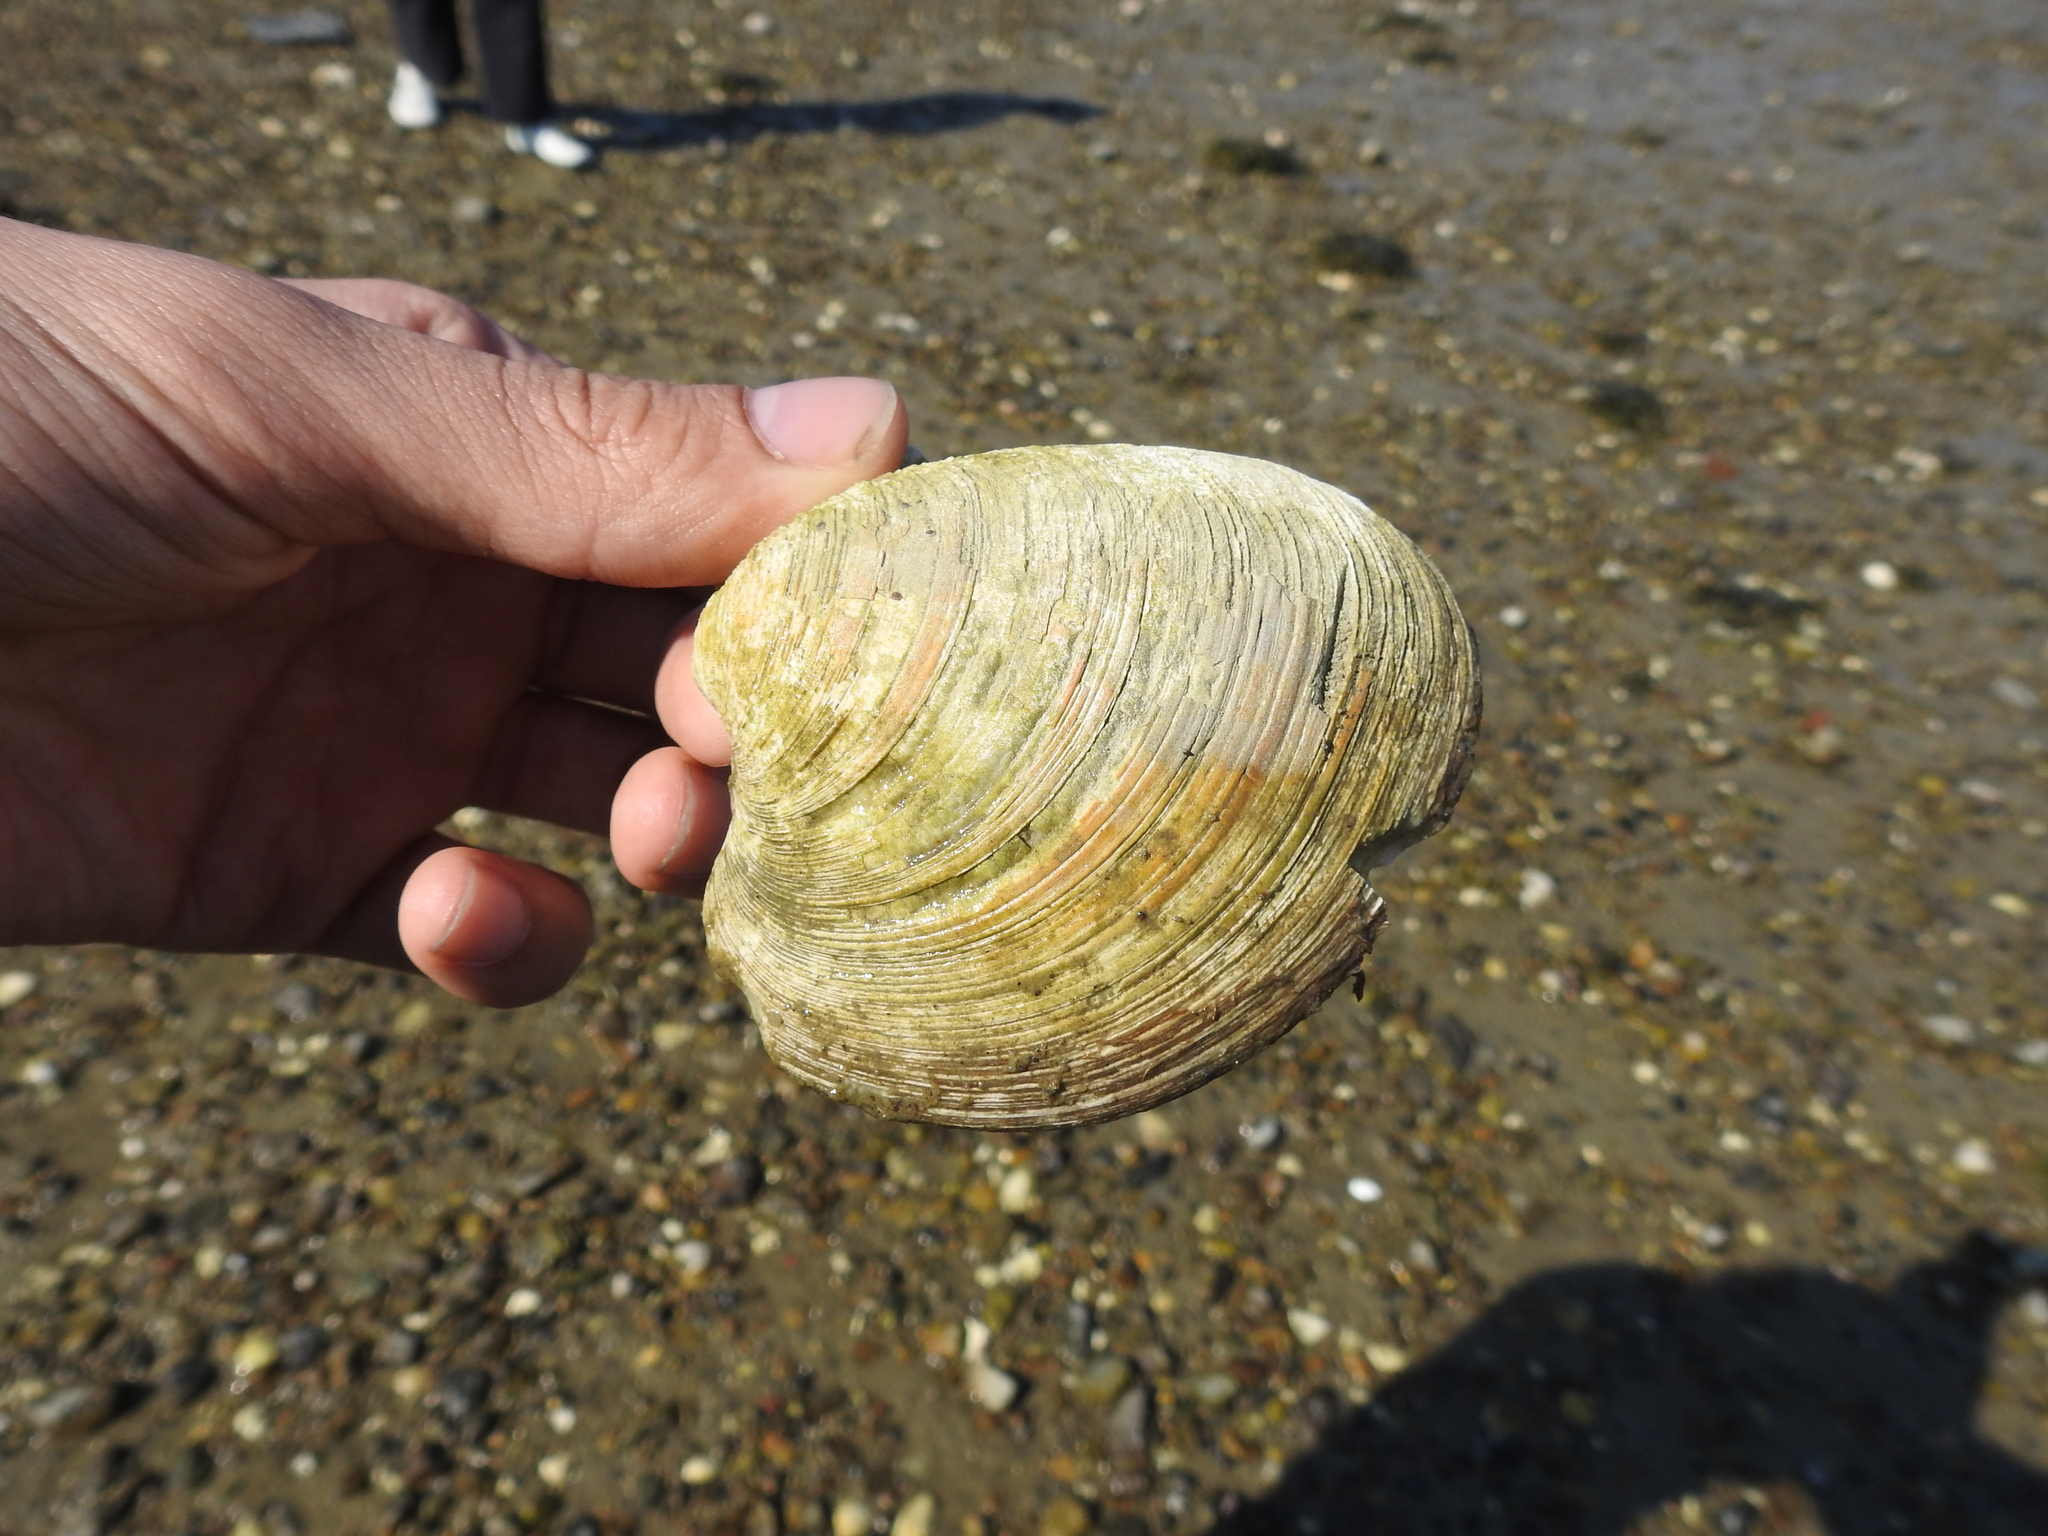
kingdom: Animalia
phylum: Mollusca
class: Bivalvia
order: Venerida
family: Veneridae
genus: Mercenaria
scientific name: Mercenaria mercenaria
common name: American hard-shelled clam
